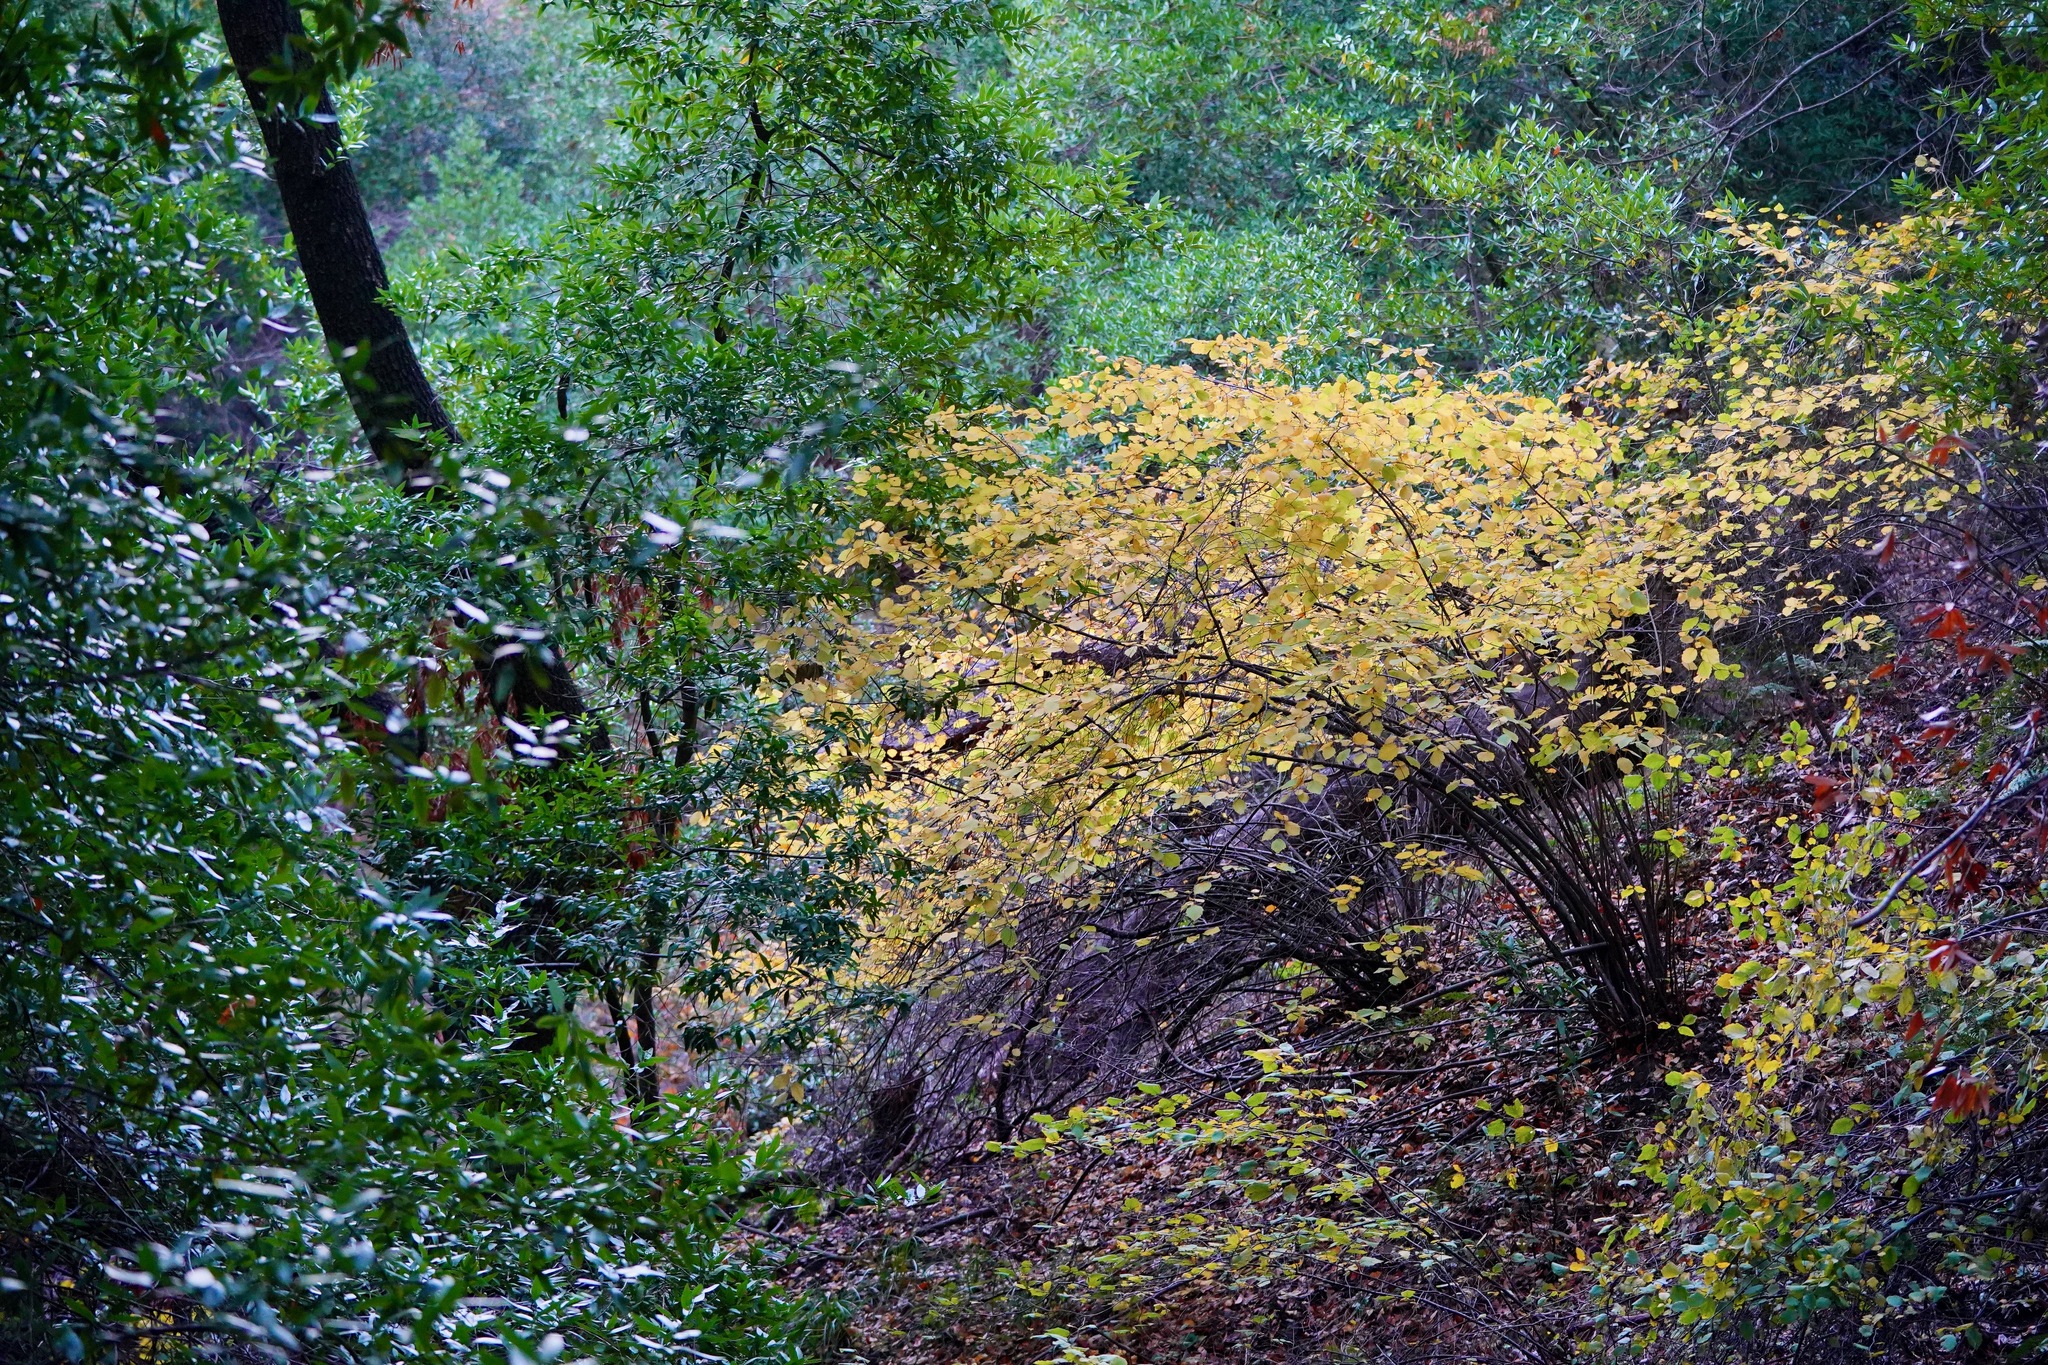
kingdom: Plantae
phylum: Tracheophyta
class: Magnoliopsida
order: Fagales
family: Betulaceae
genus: Corylus
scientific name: Corylus cornuta
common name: Beaked hazel
